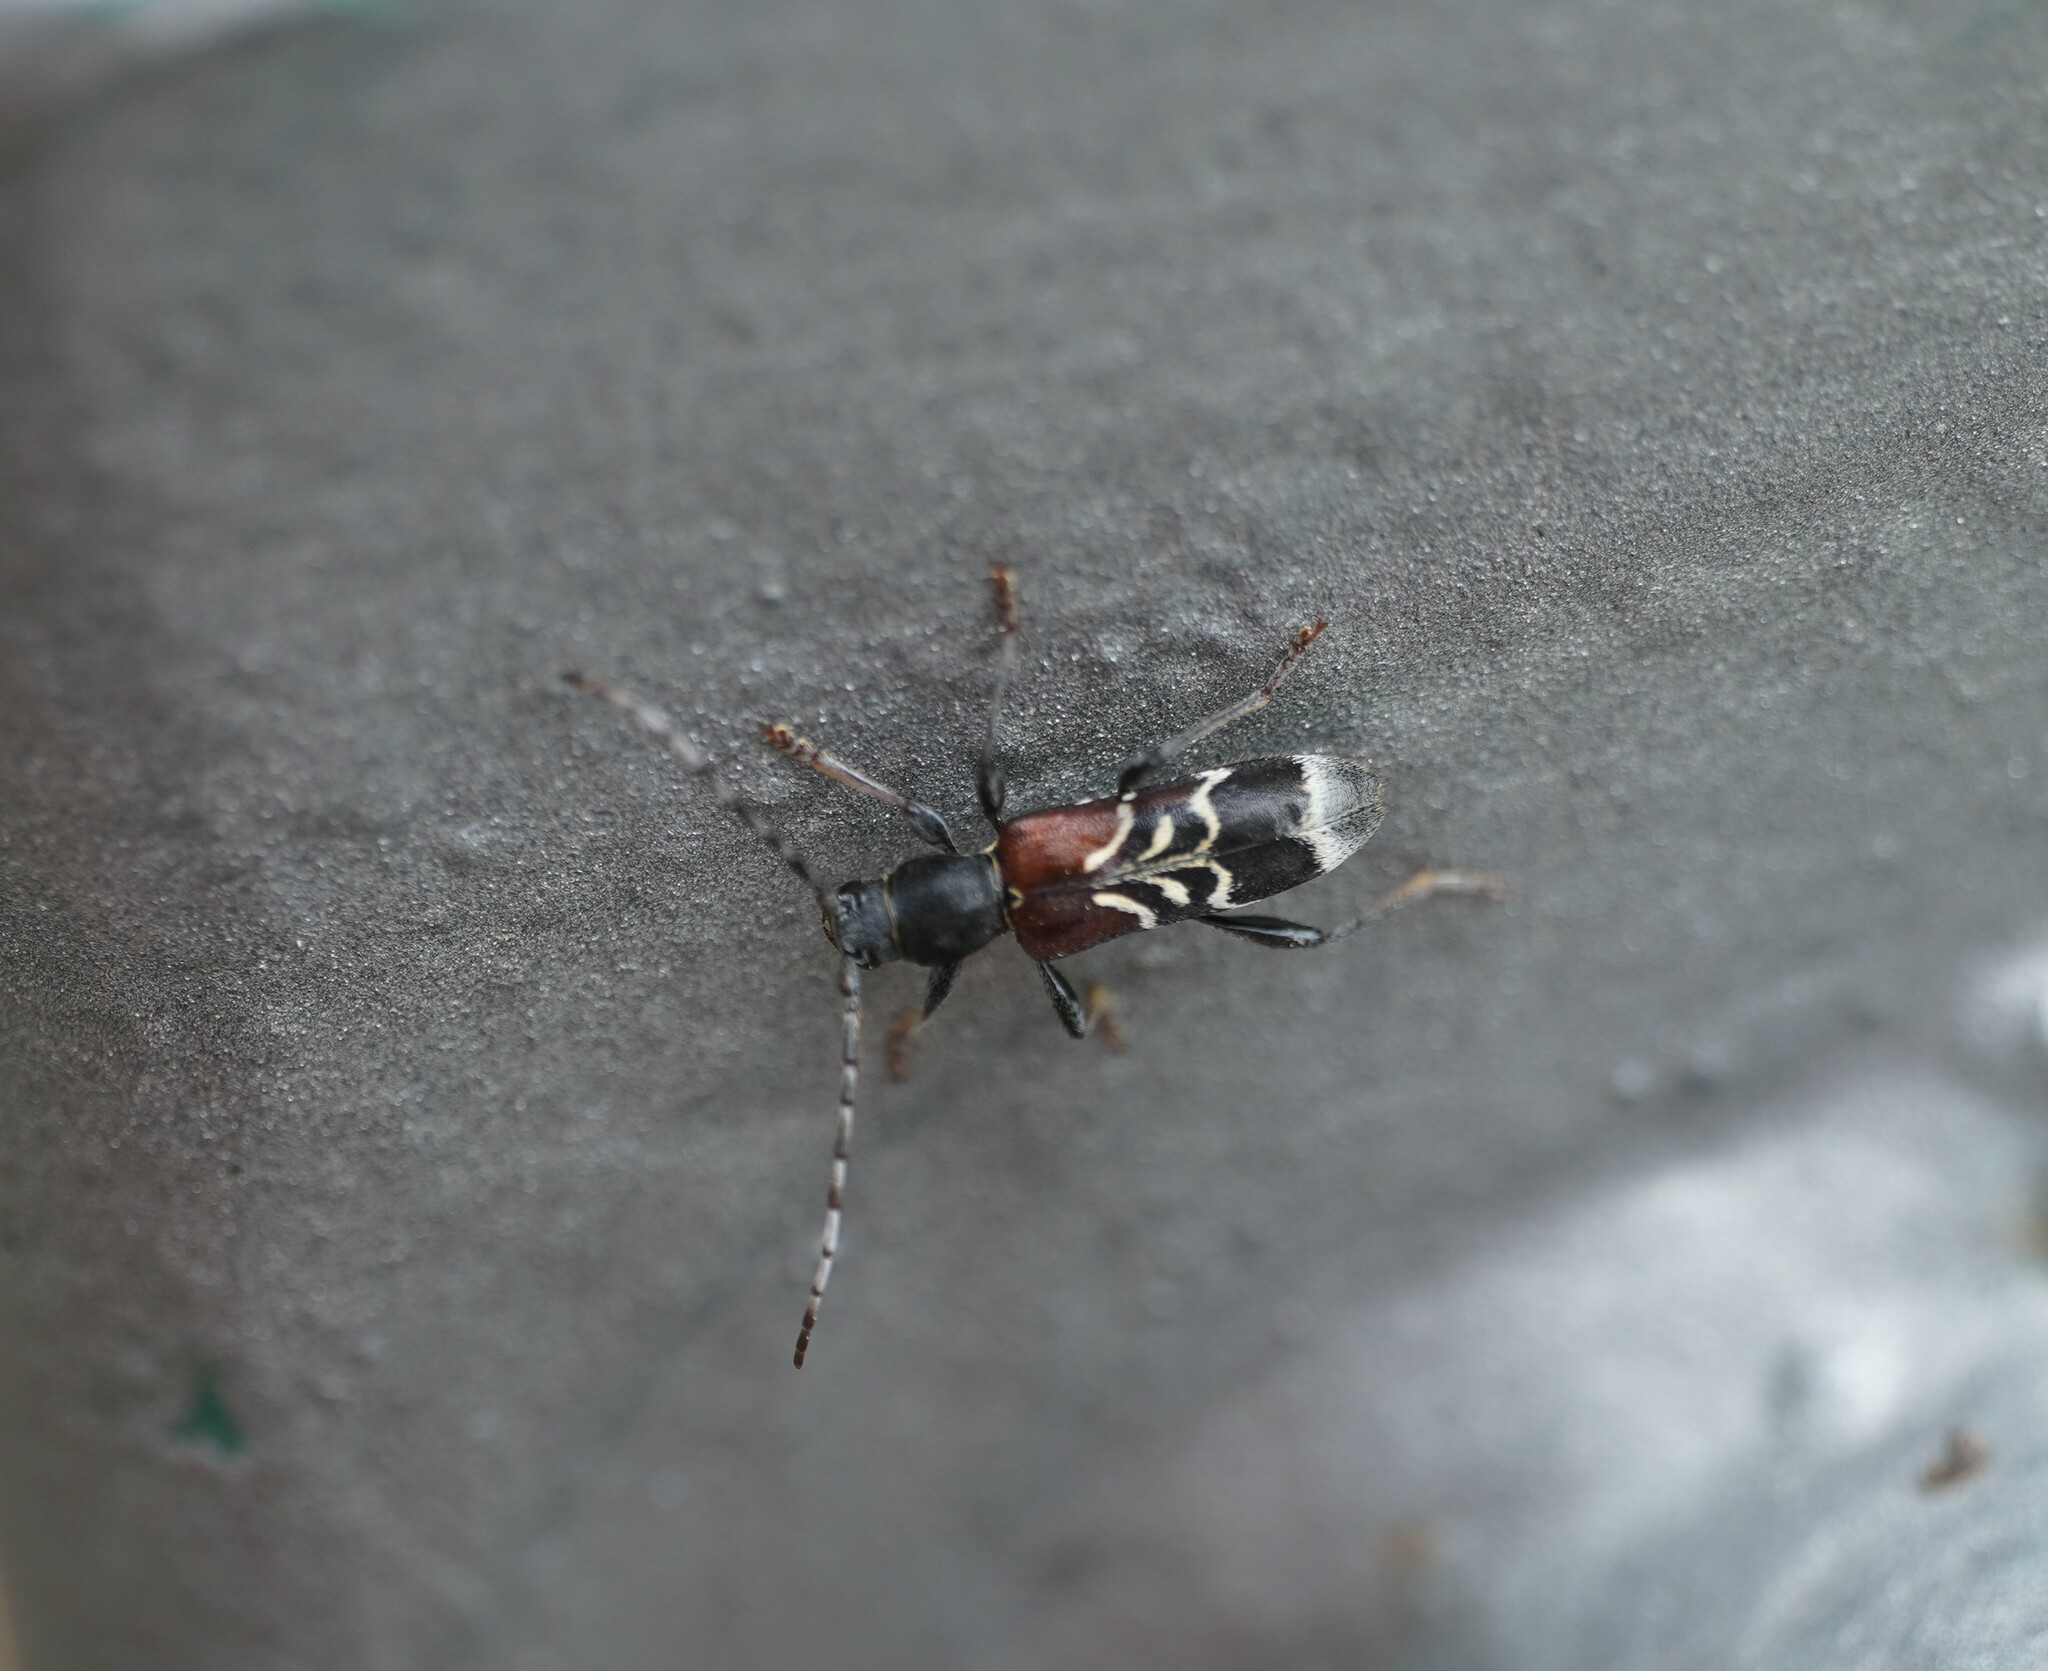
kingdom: Animalia
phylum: Arthropoda
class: Insecta
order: Coleoptera
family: Cerambycidae
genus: Anaglyptus
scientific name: Anaglyptus mysticus
